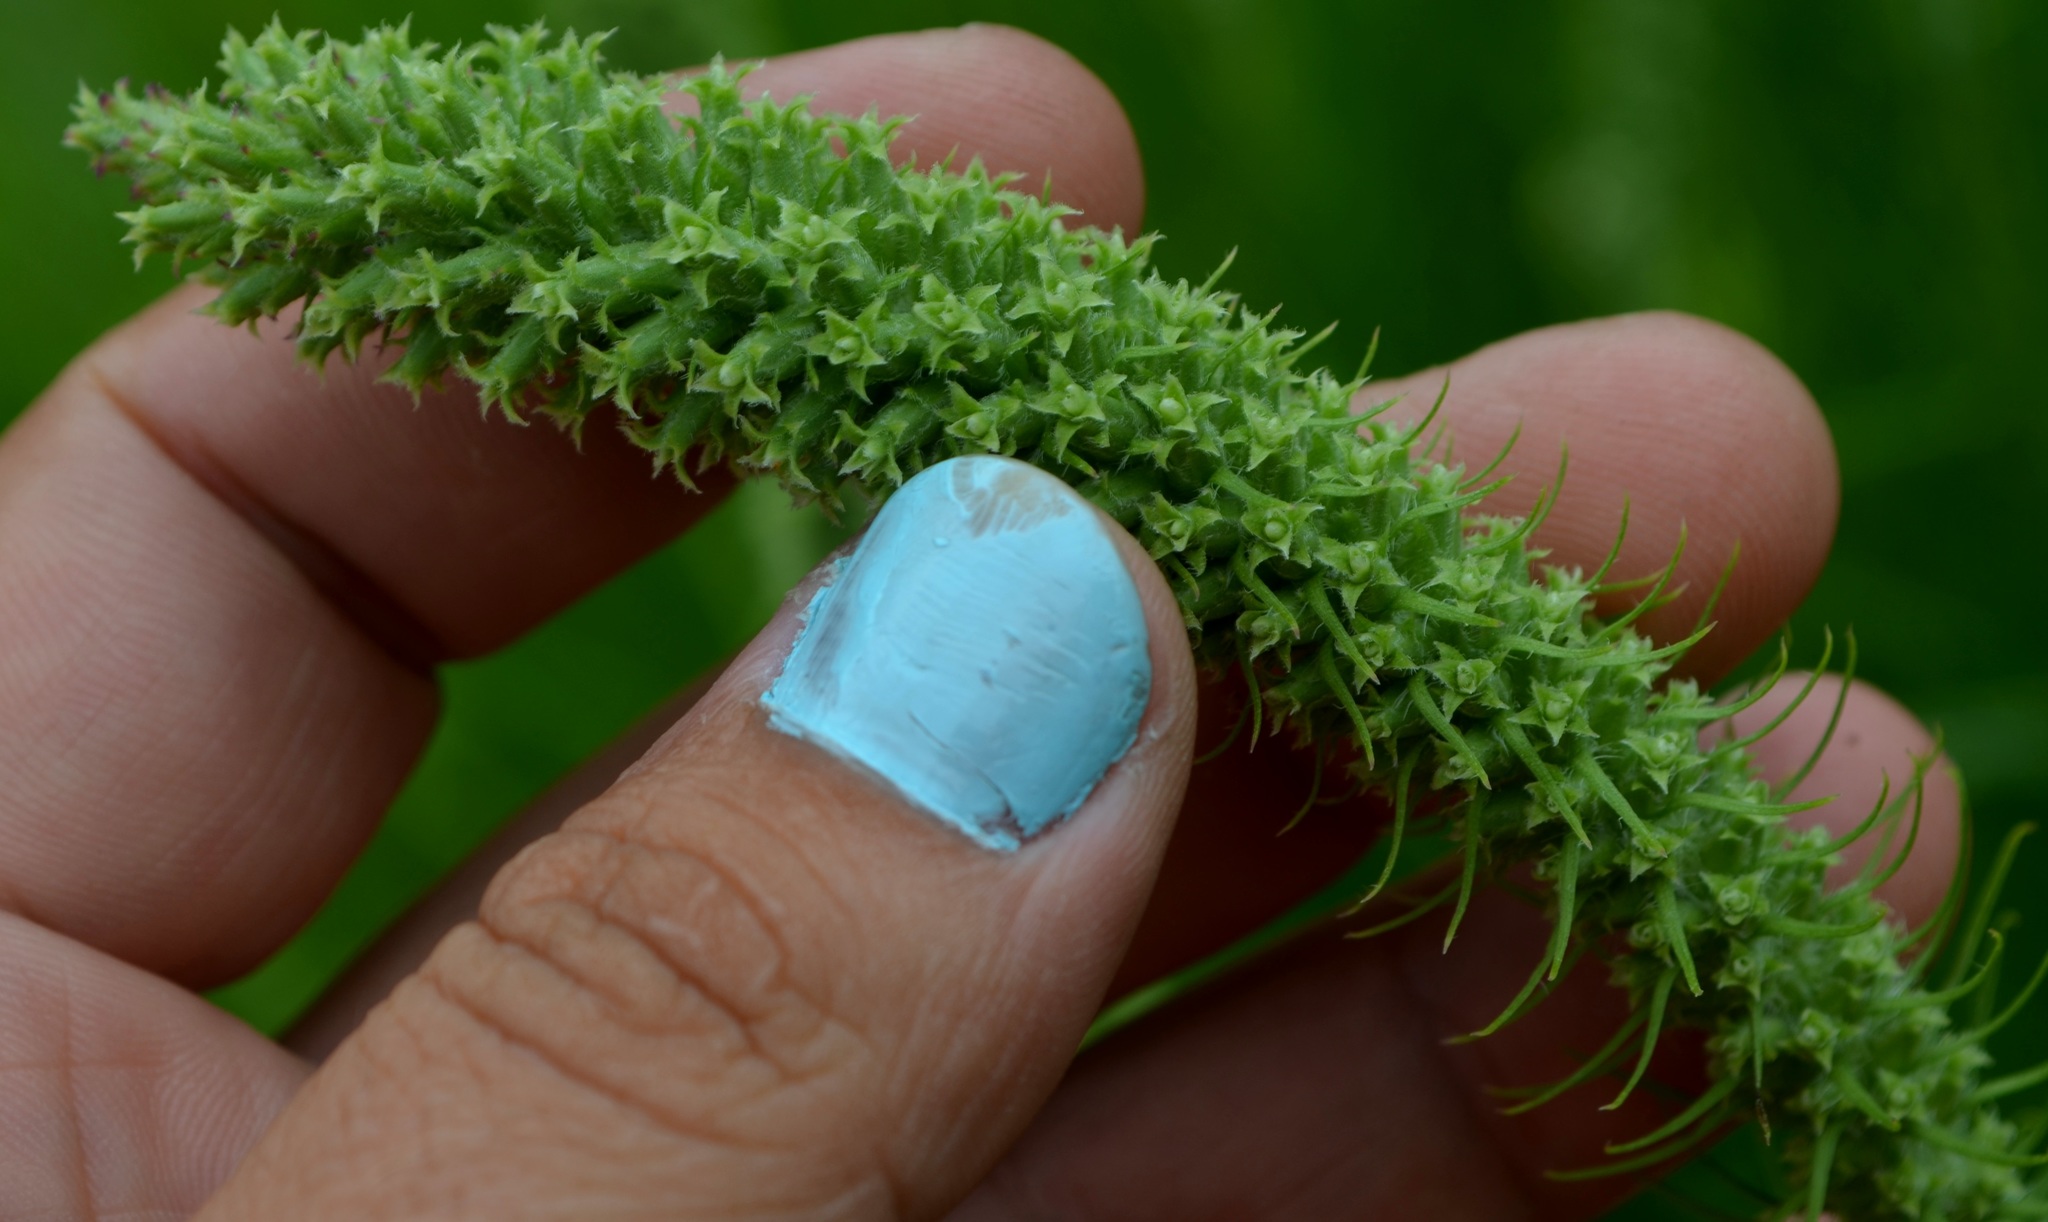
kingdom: Plantae
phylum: Tracheophyta
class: Magnoliopsida
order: Asterales
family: Asteraceae
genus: Liatris
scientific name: Liatris pycnostachya
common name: Cattail gayfeather
